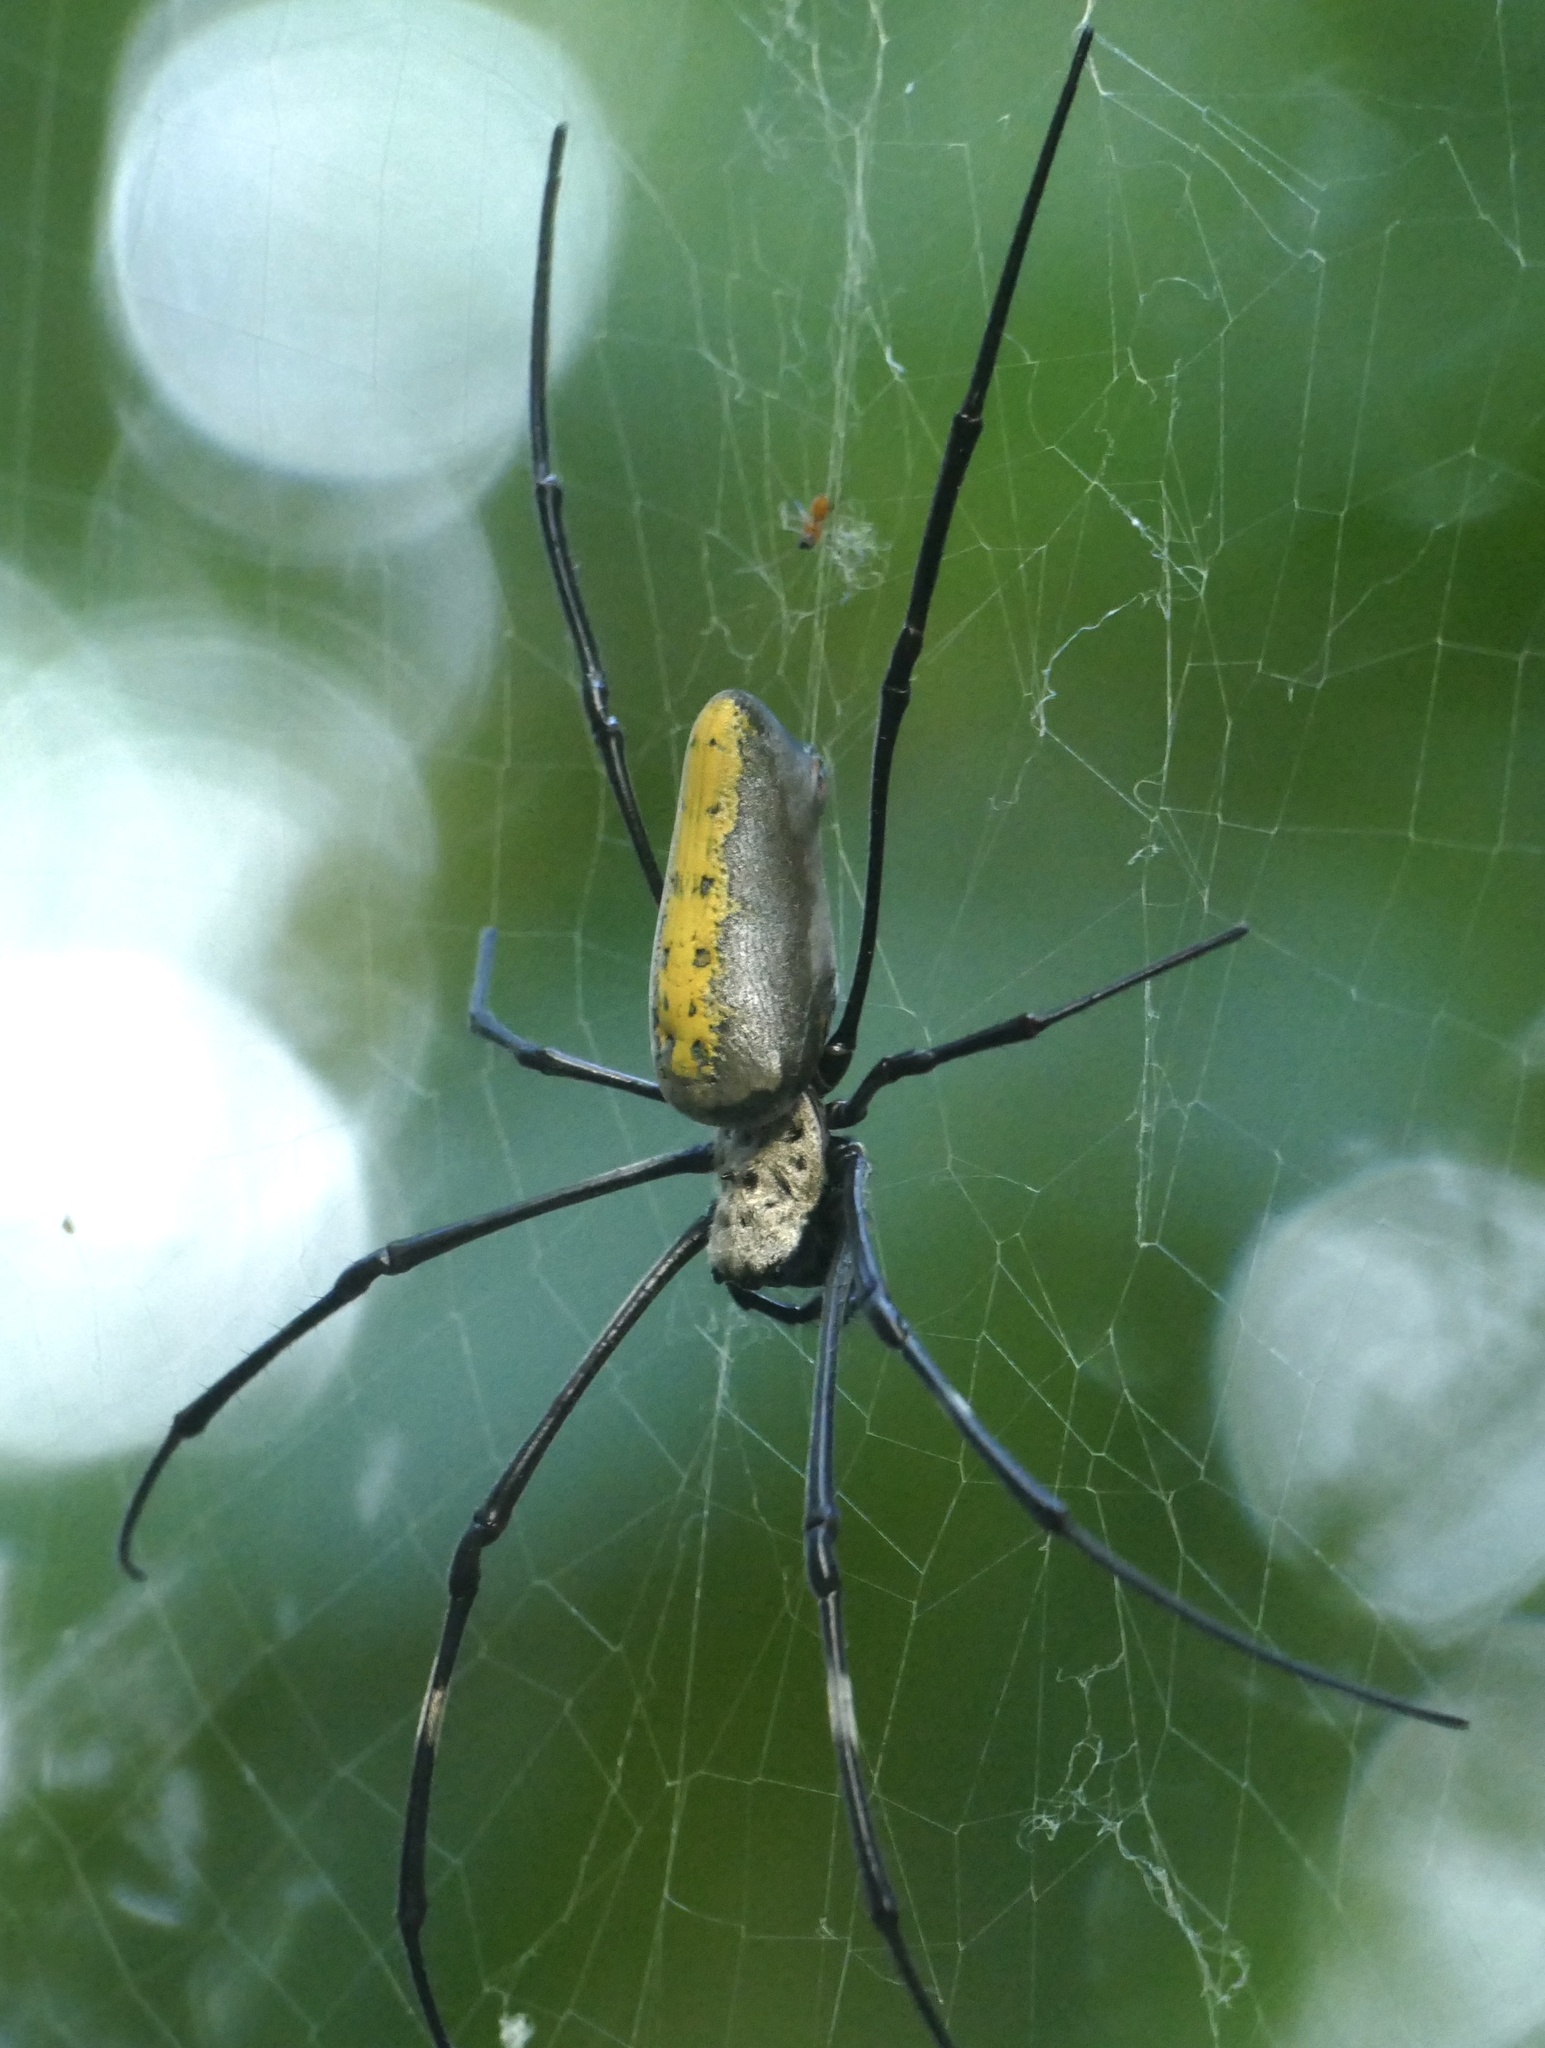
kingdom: Animalia
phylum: Arthropoda
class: Arachnida
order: Araneae
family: Araneidae
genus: Trichonephila
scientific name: Trichonephila antipodiana
